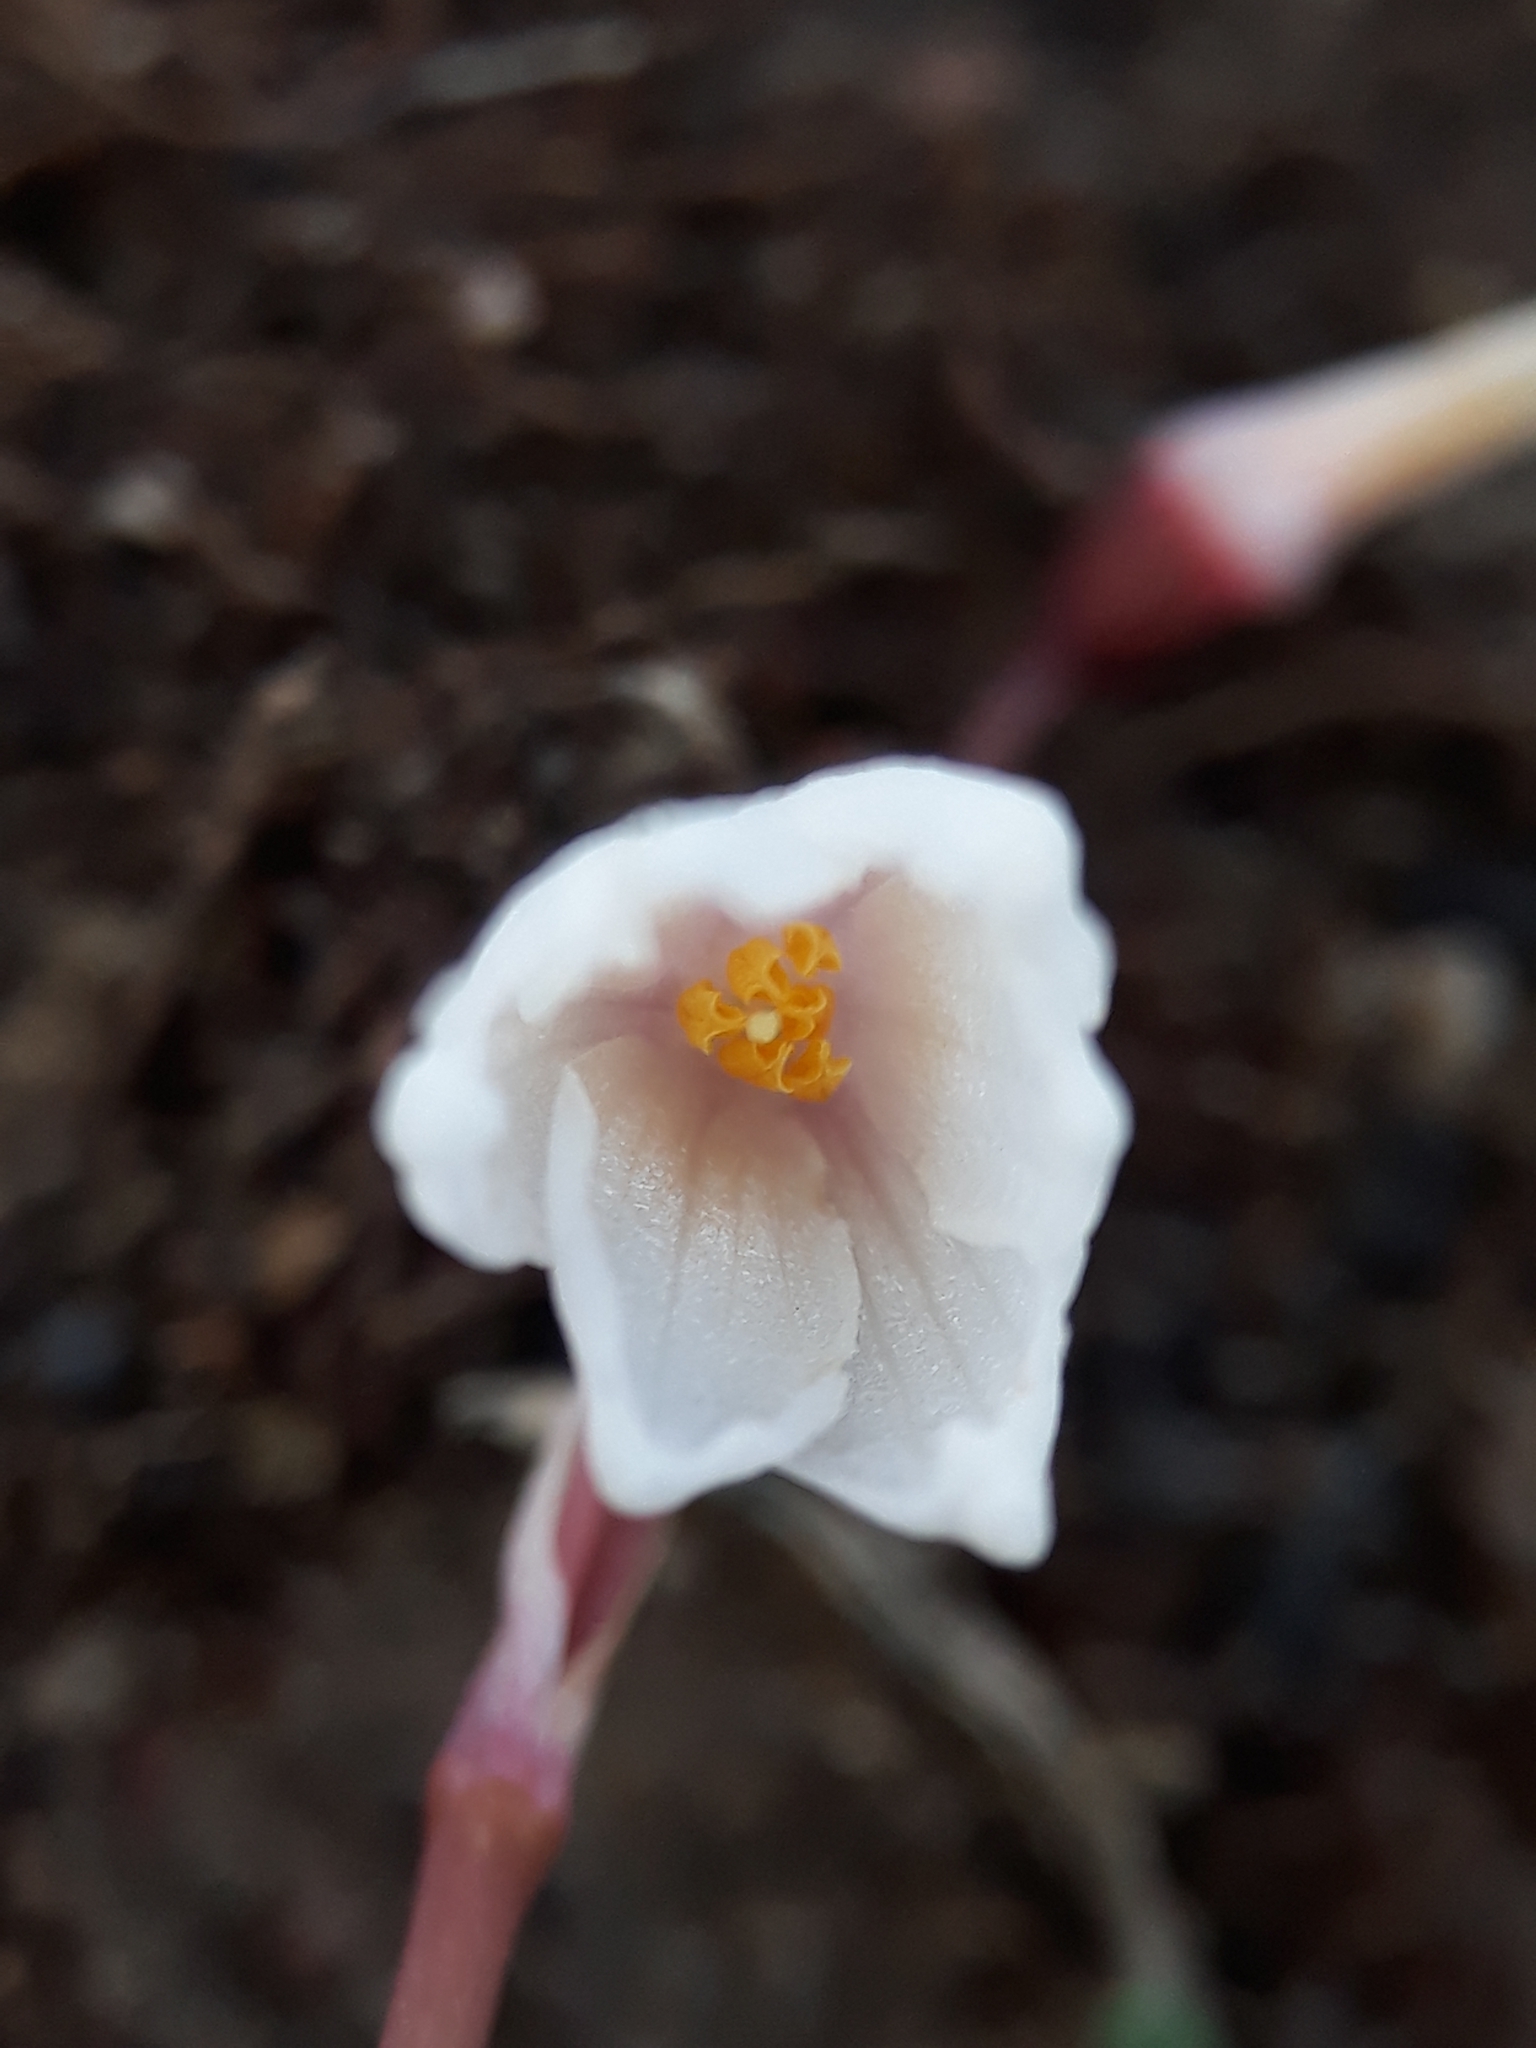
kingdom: Plantae
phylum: Tracheophyta
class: Liliopsida
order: Asparagales
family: Amaryllidaceae
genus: Acis
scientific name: Acis autumnalis
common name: Autumn snowflake
